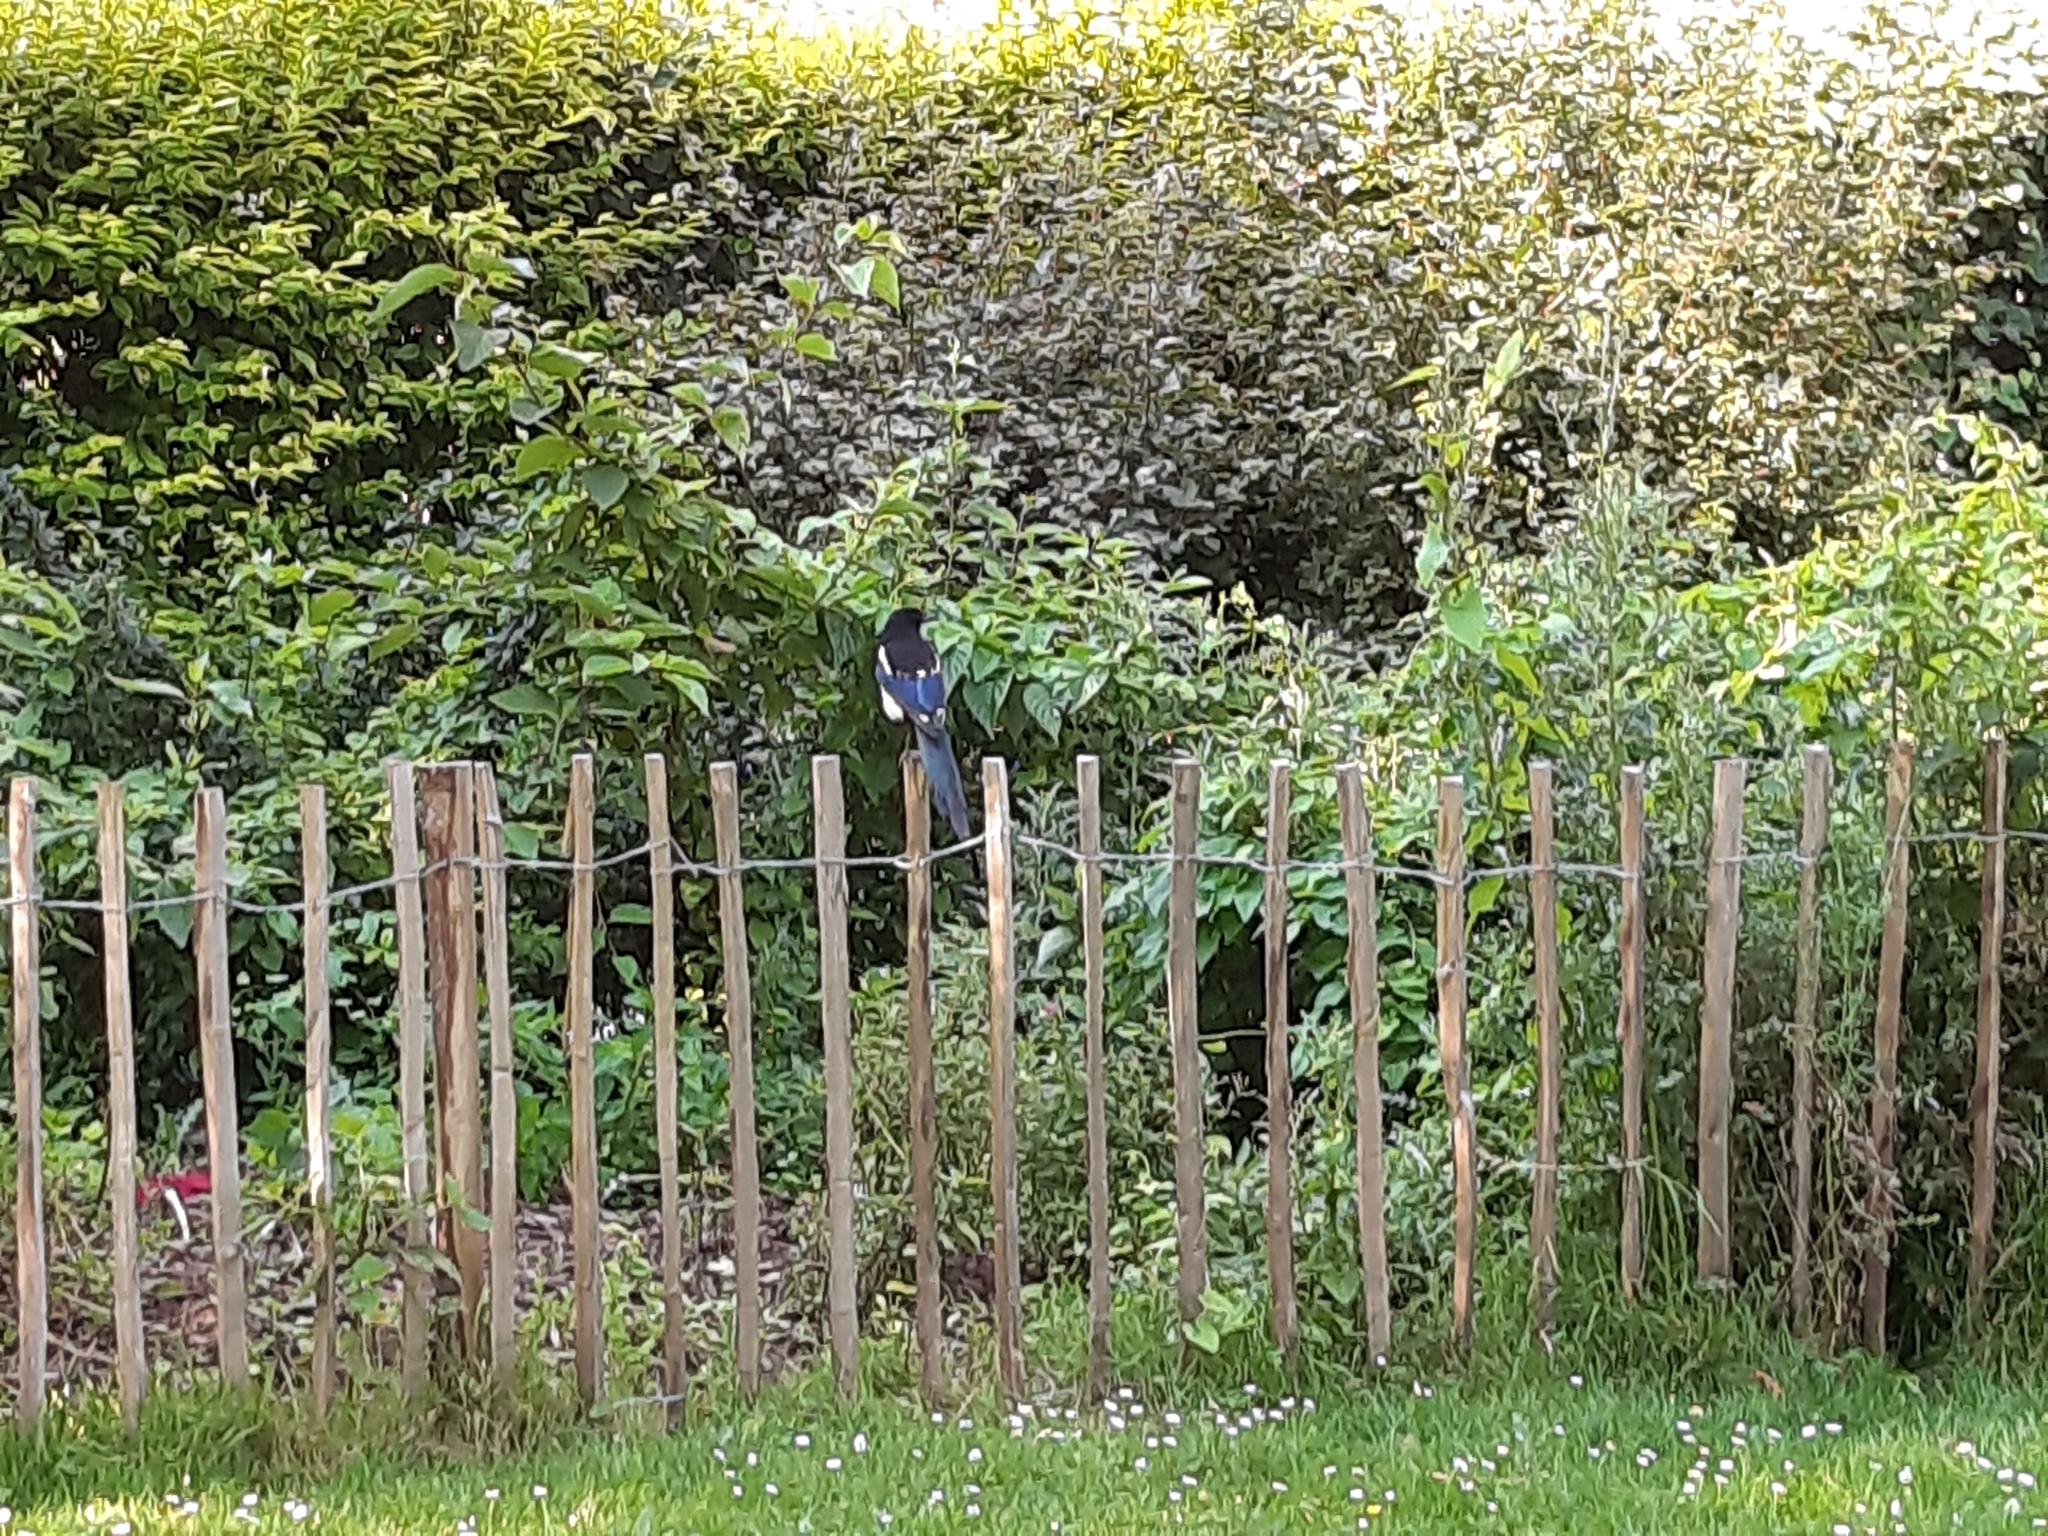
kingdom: Animalia
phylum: Chordata
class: Aves
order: Passeriformes
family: Corvidae
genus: Pica
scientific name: Pica pica
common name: Eurasian magpie
